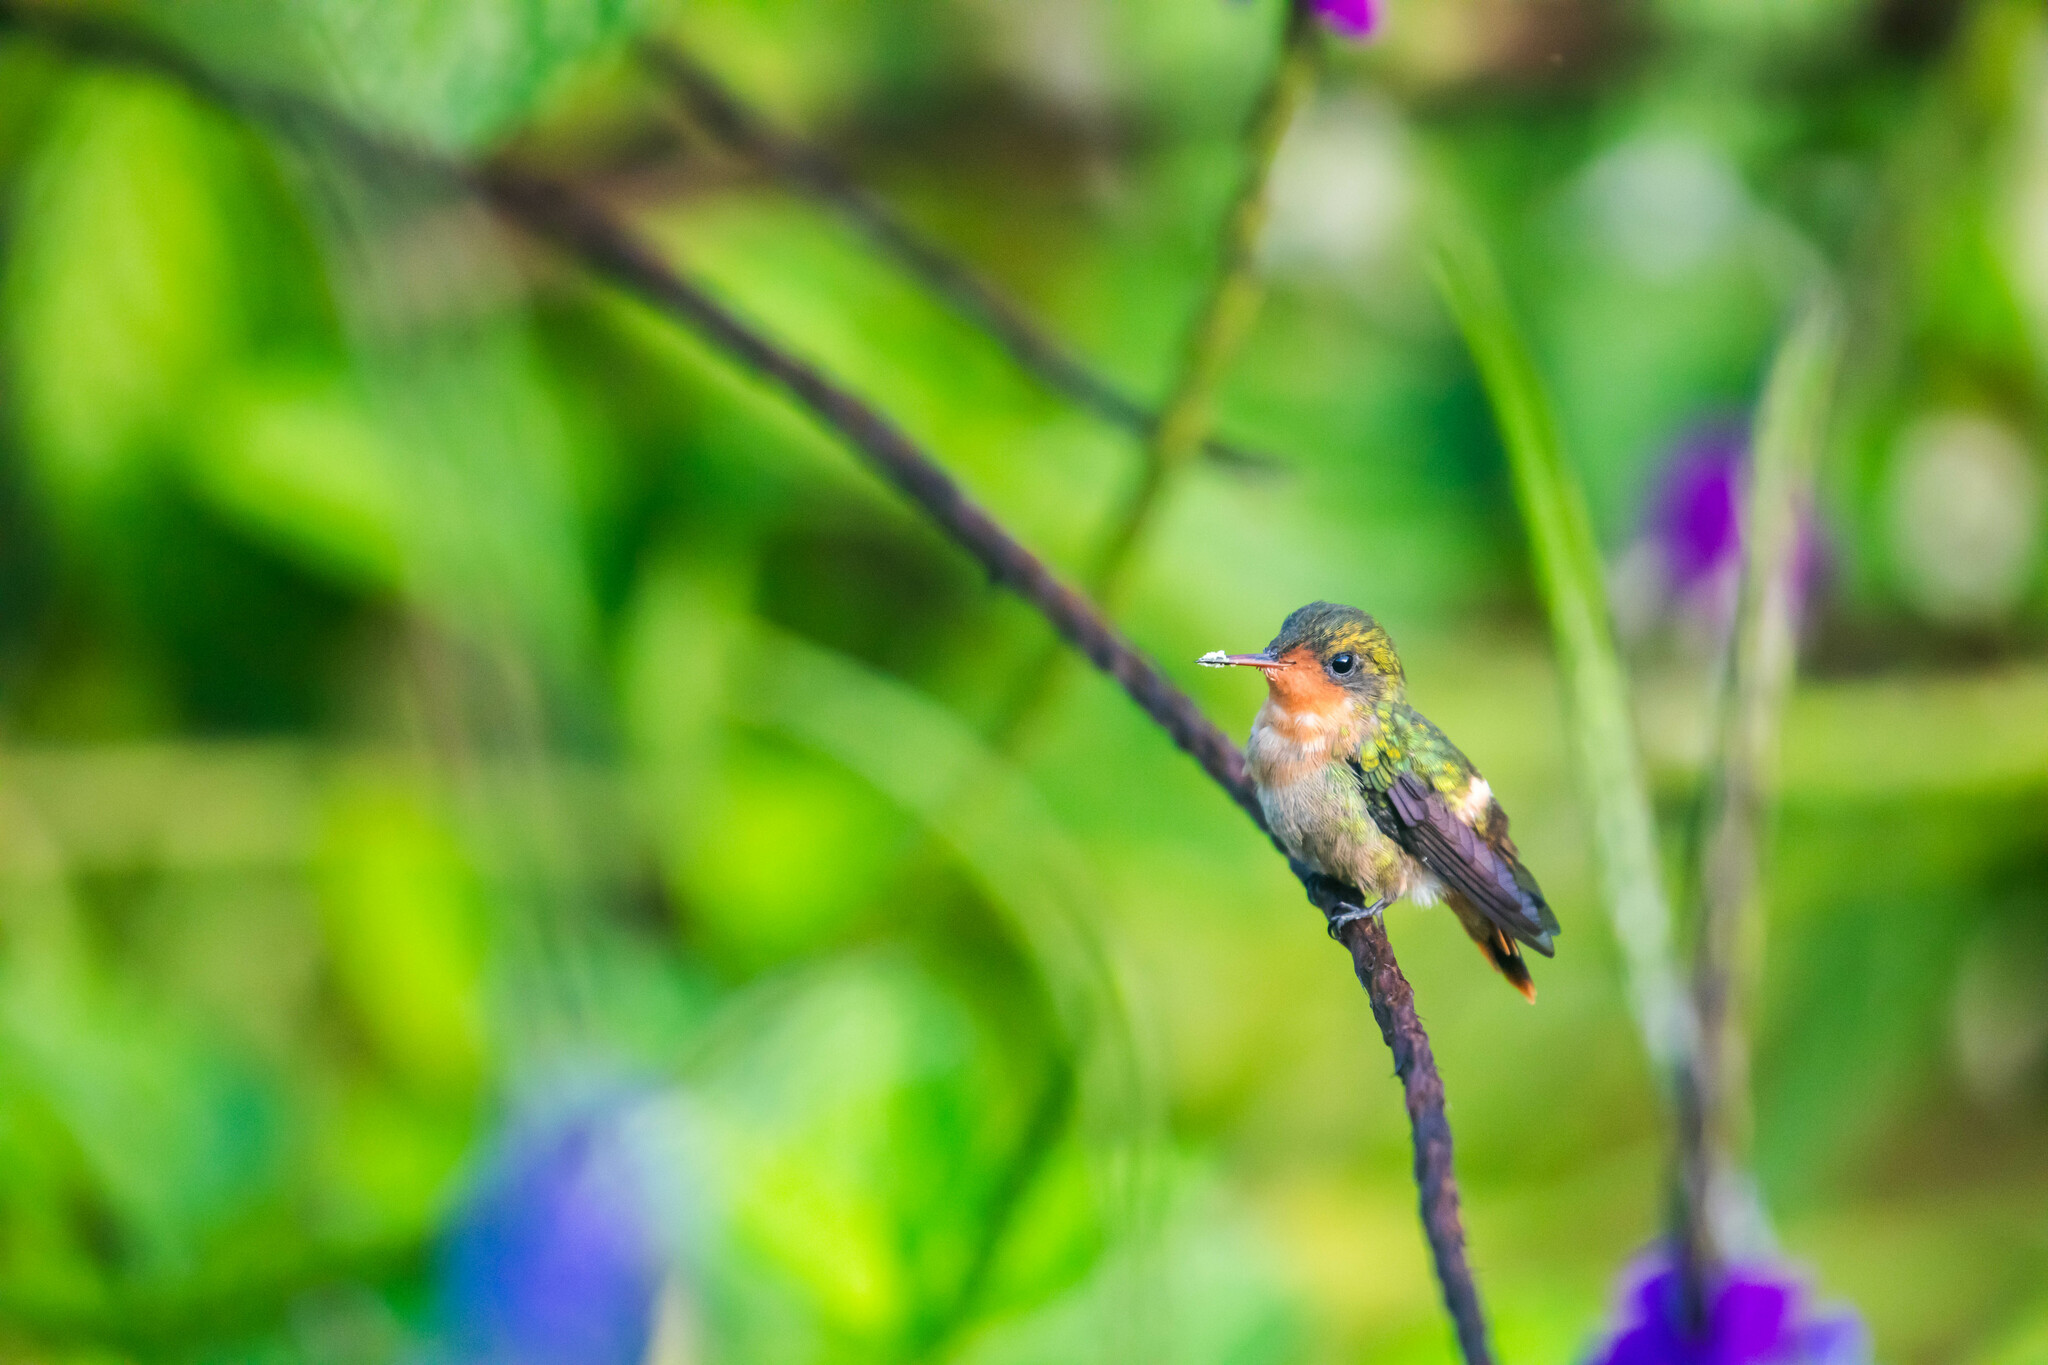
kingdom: Animalia
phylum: Chordata
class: Aves
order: Apodiformes
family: Trochilidae
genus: Lophornis
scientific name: Lophornis ornatus
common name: Tufted coquette
